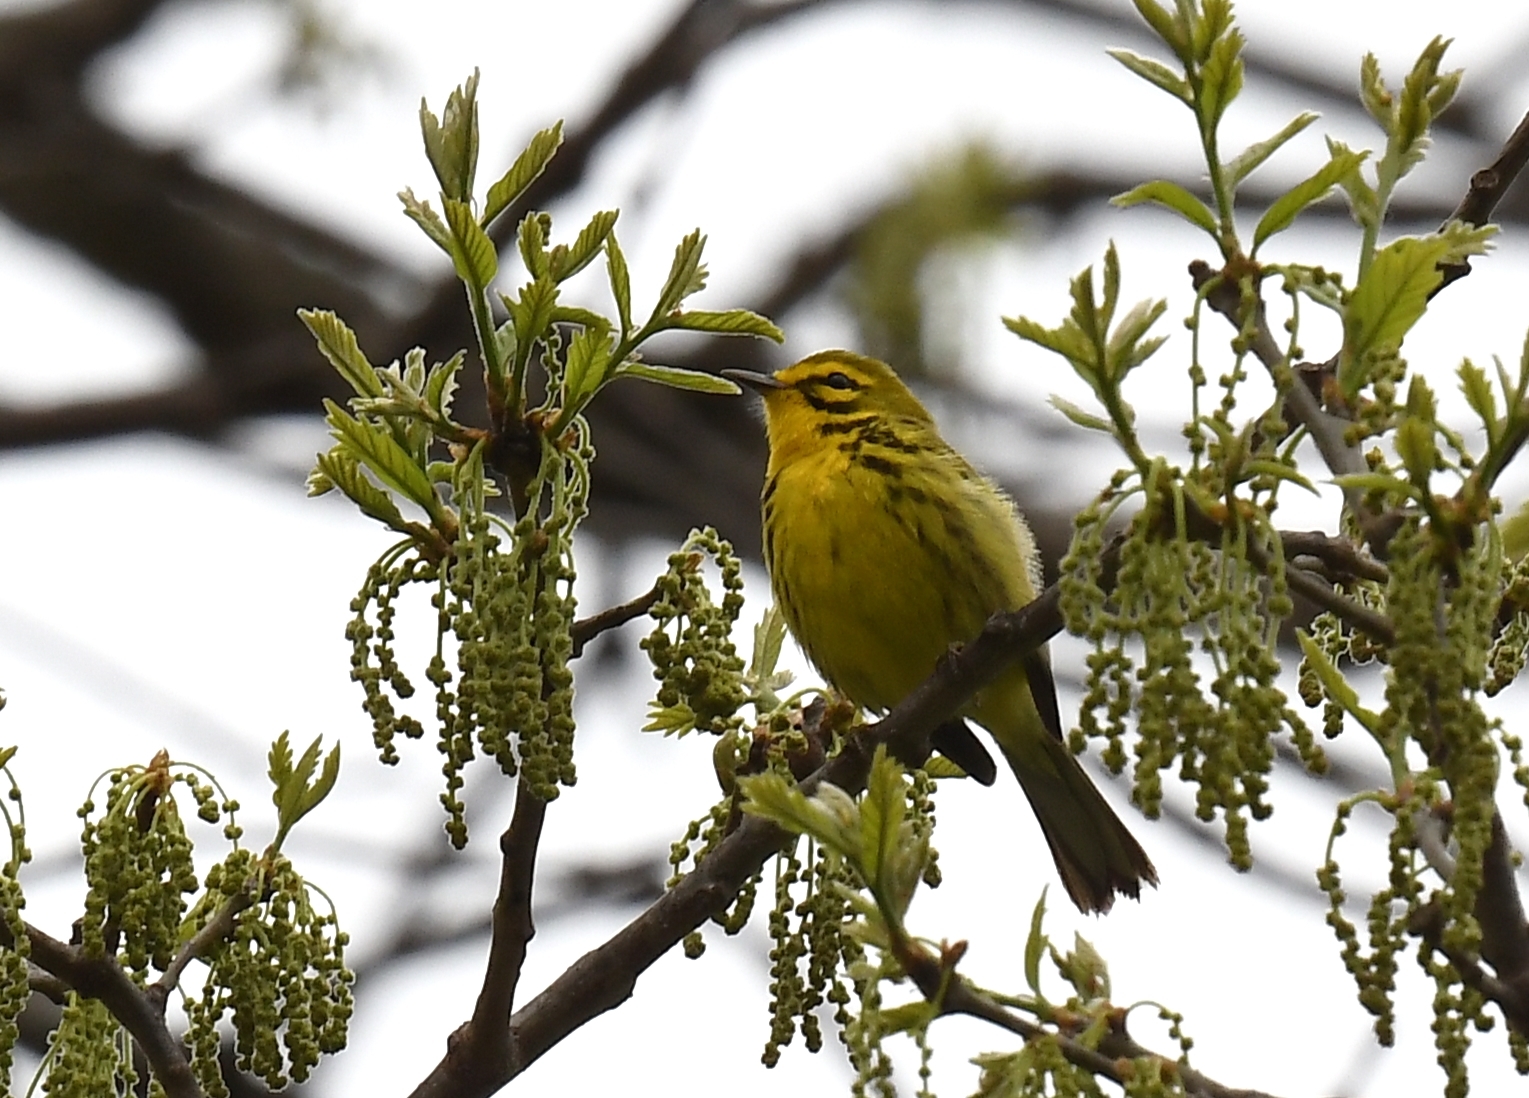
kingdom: Animalia
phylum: Chordata
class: Aves
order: Passeriformes
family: Parulidae
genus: Setophaga
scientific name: Setophaga discolor
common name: Prairie warbler
